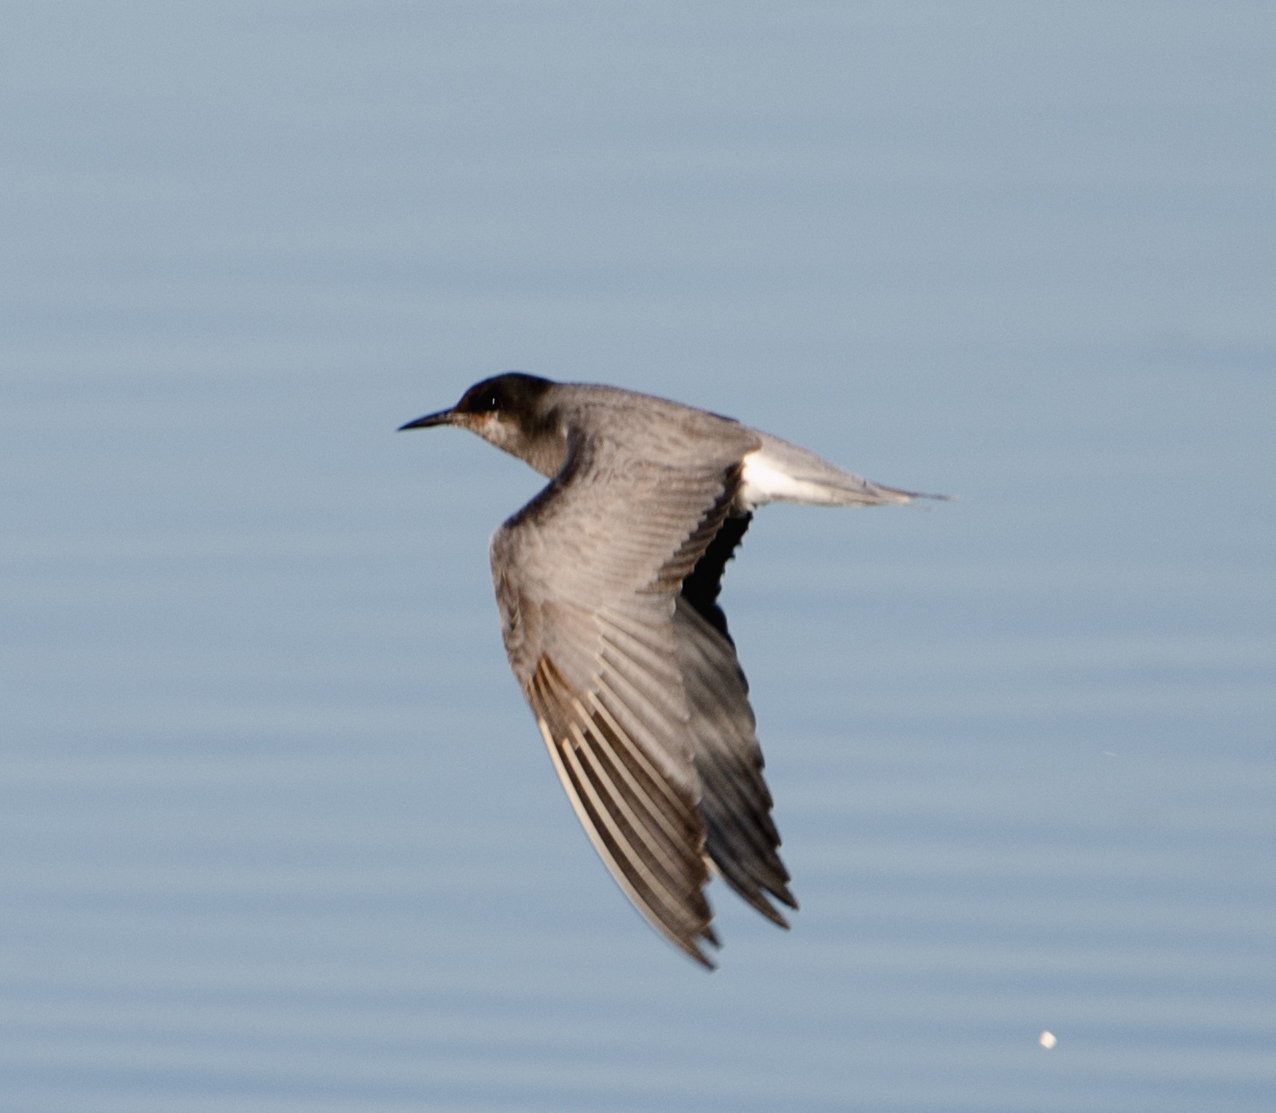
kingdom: Animalia
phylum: Chordata
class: Aves
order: Charadriiformes
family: Laridae
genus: Chlidonias
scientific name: Chlidonias niger
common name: Black tern
